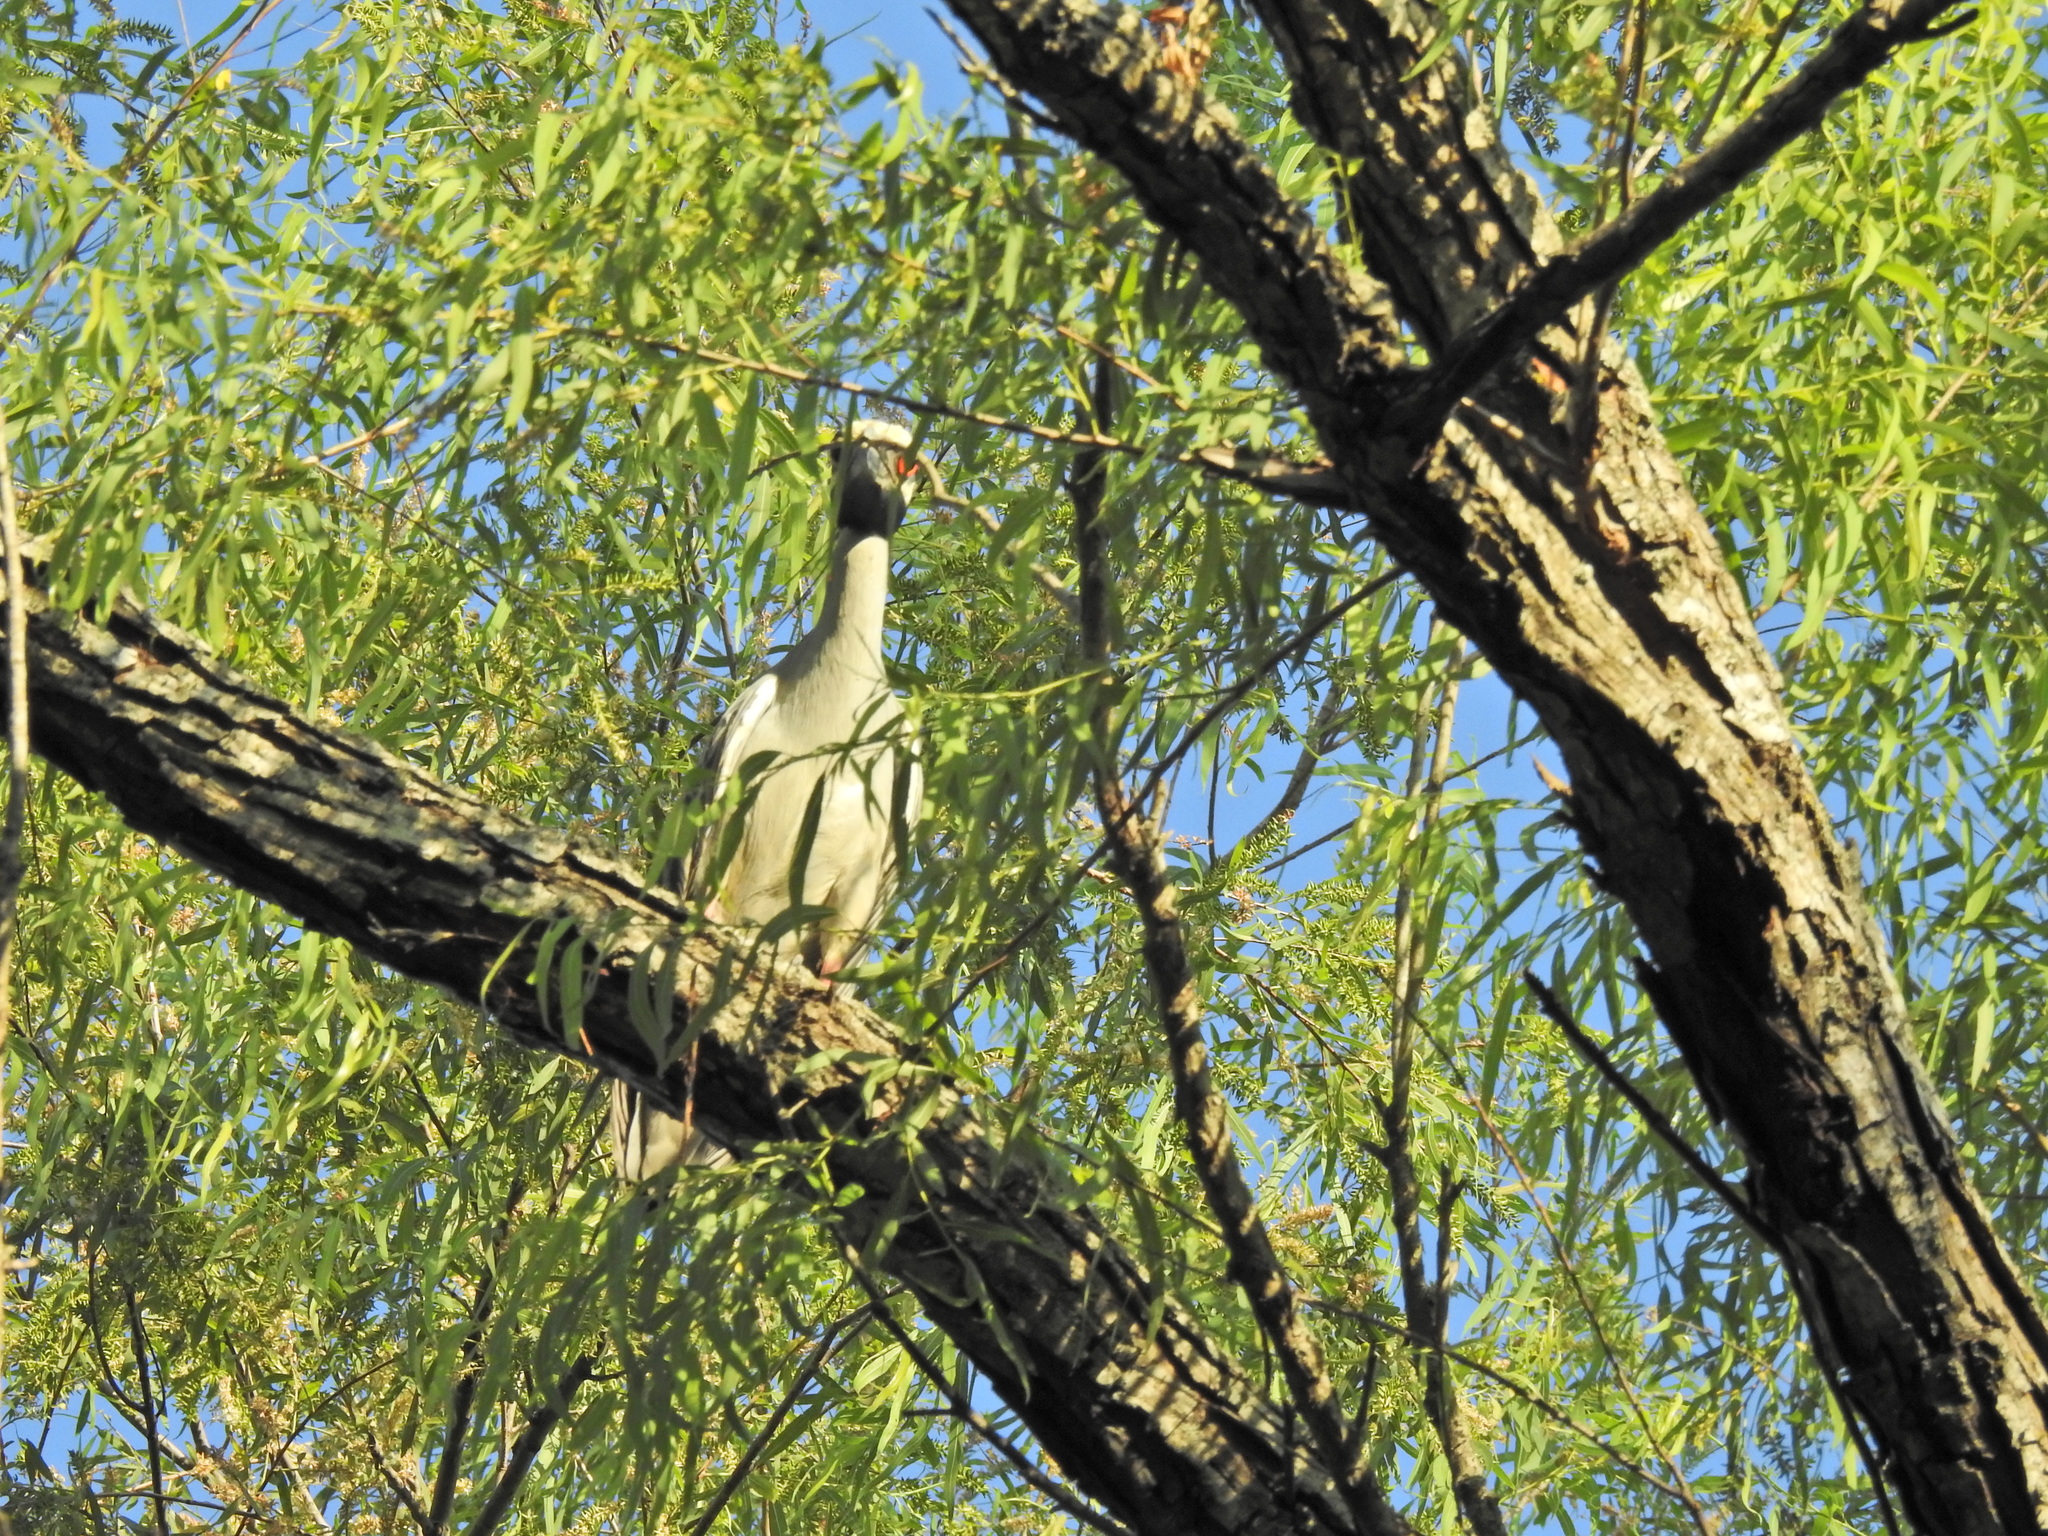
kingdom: Animalia
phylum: Chordata
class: Aves
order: Pelecaniformes
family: Ardeidae
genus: Nyctanassa
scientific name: Nyctanassa violacea
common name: Yellow-crowned night heron
